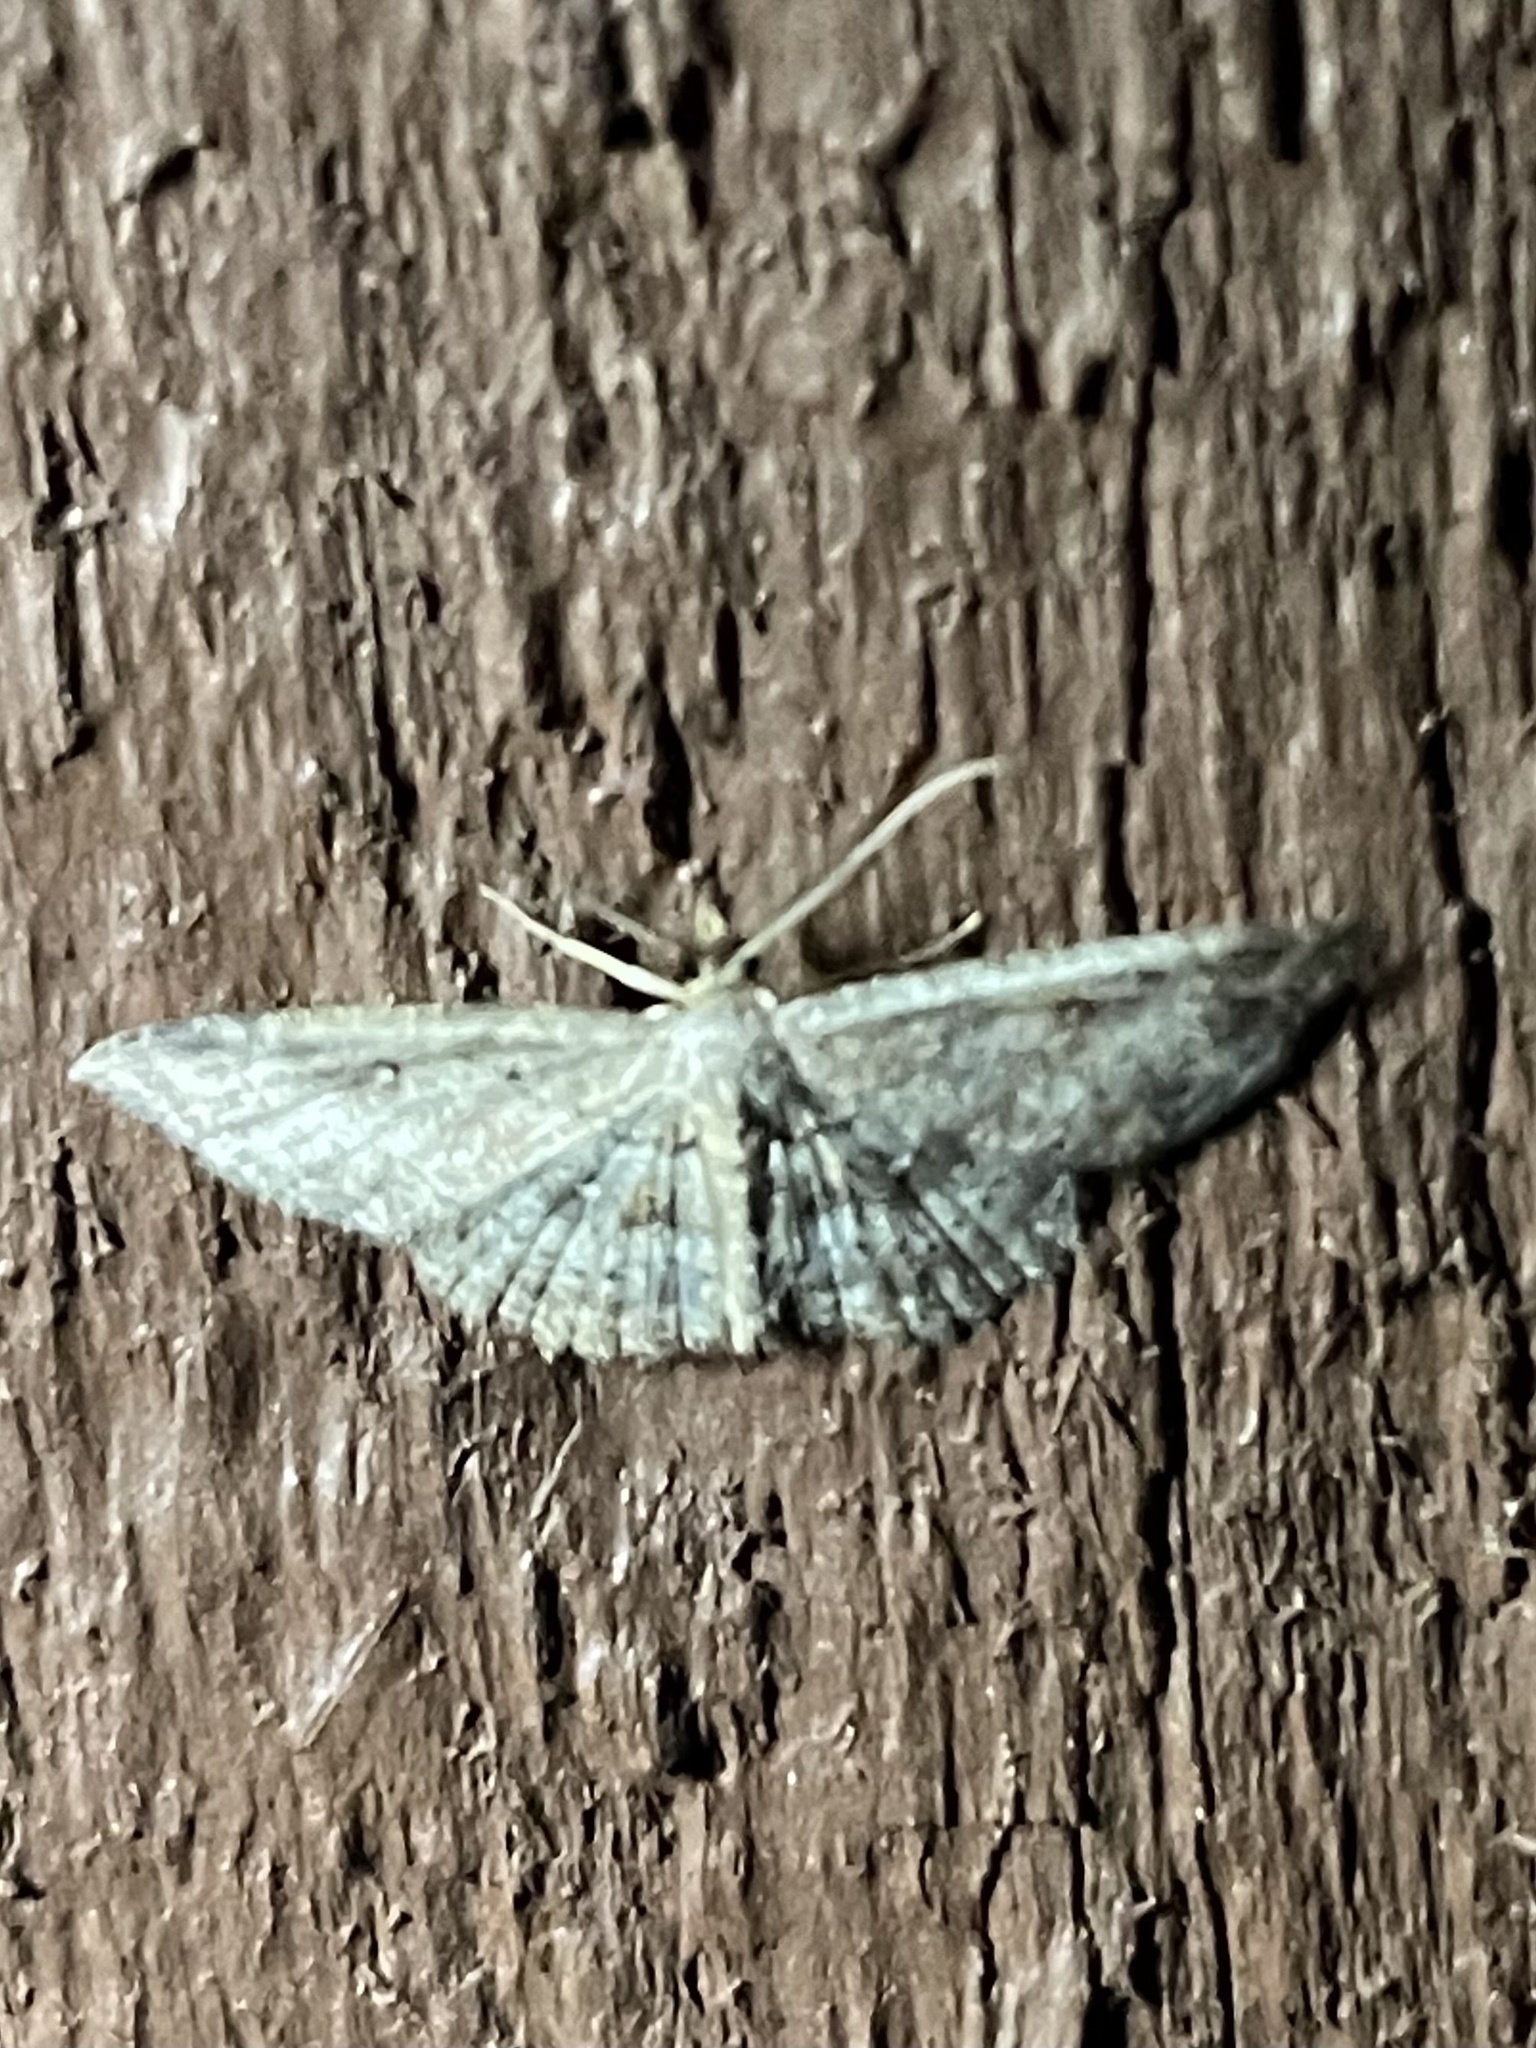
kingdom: Animalia
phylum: Arthropoda
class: Insecta
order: Lepidoptera
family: Geometridae
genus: Cyclophora
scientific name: Cyclophora nanaria
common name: Cankerworm
